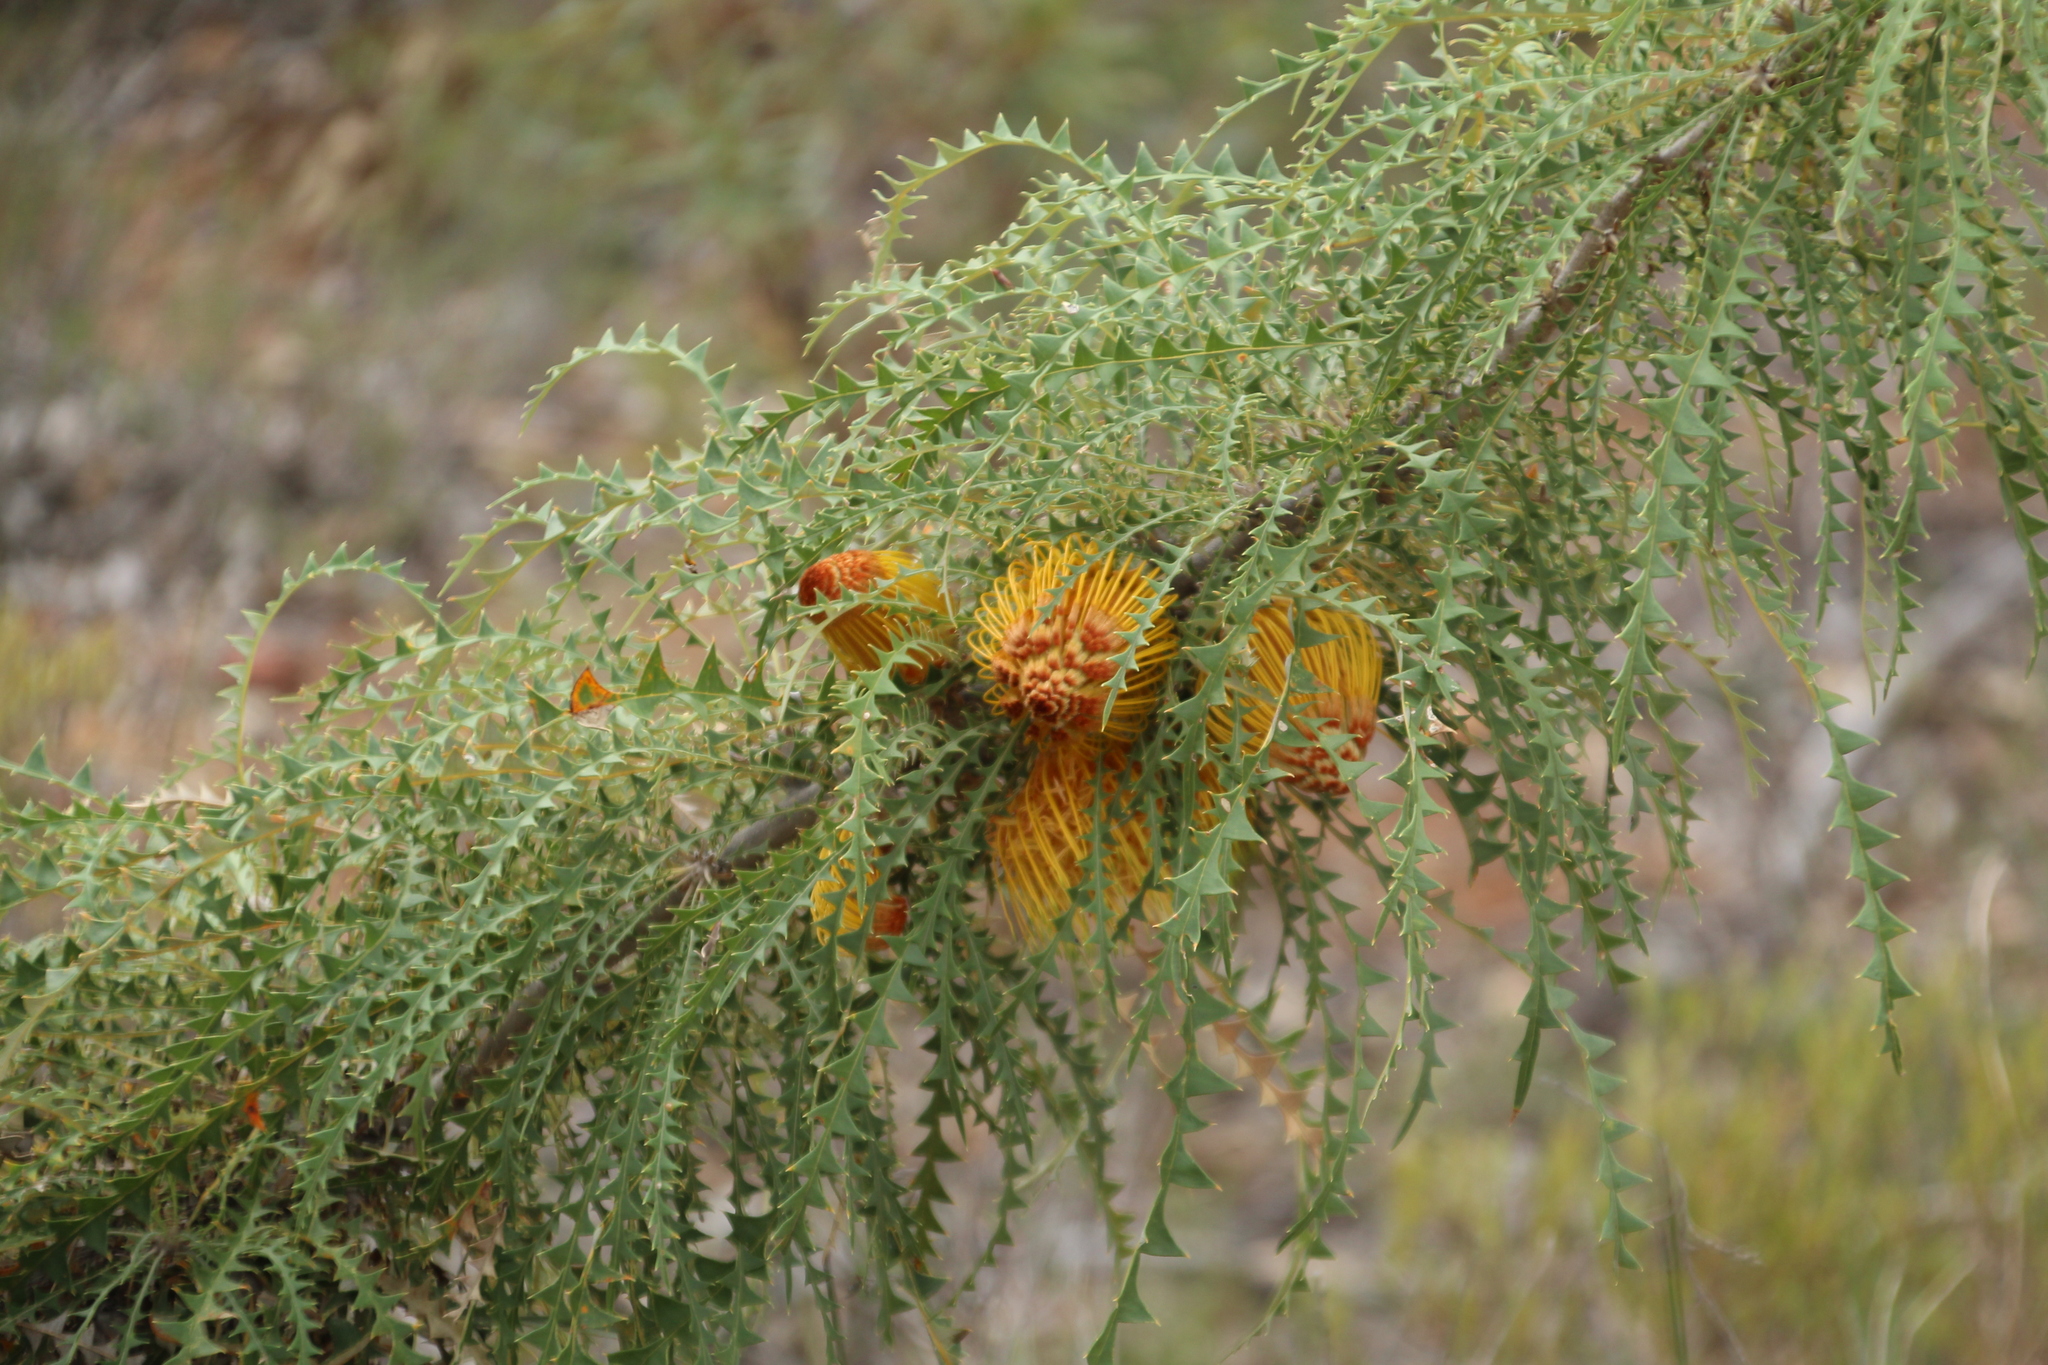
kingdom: Plantae
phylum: Tracheophyta
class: Magnoliopsida
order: Proteales
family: Proteaceae
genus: Banksia
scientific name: Banksia horrida
